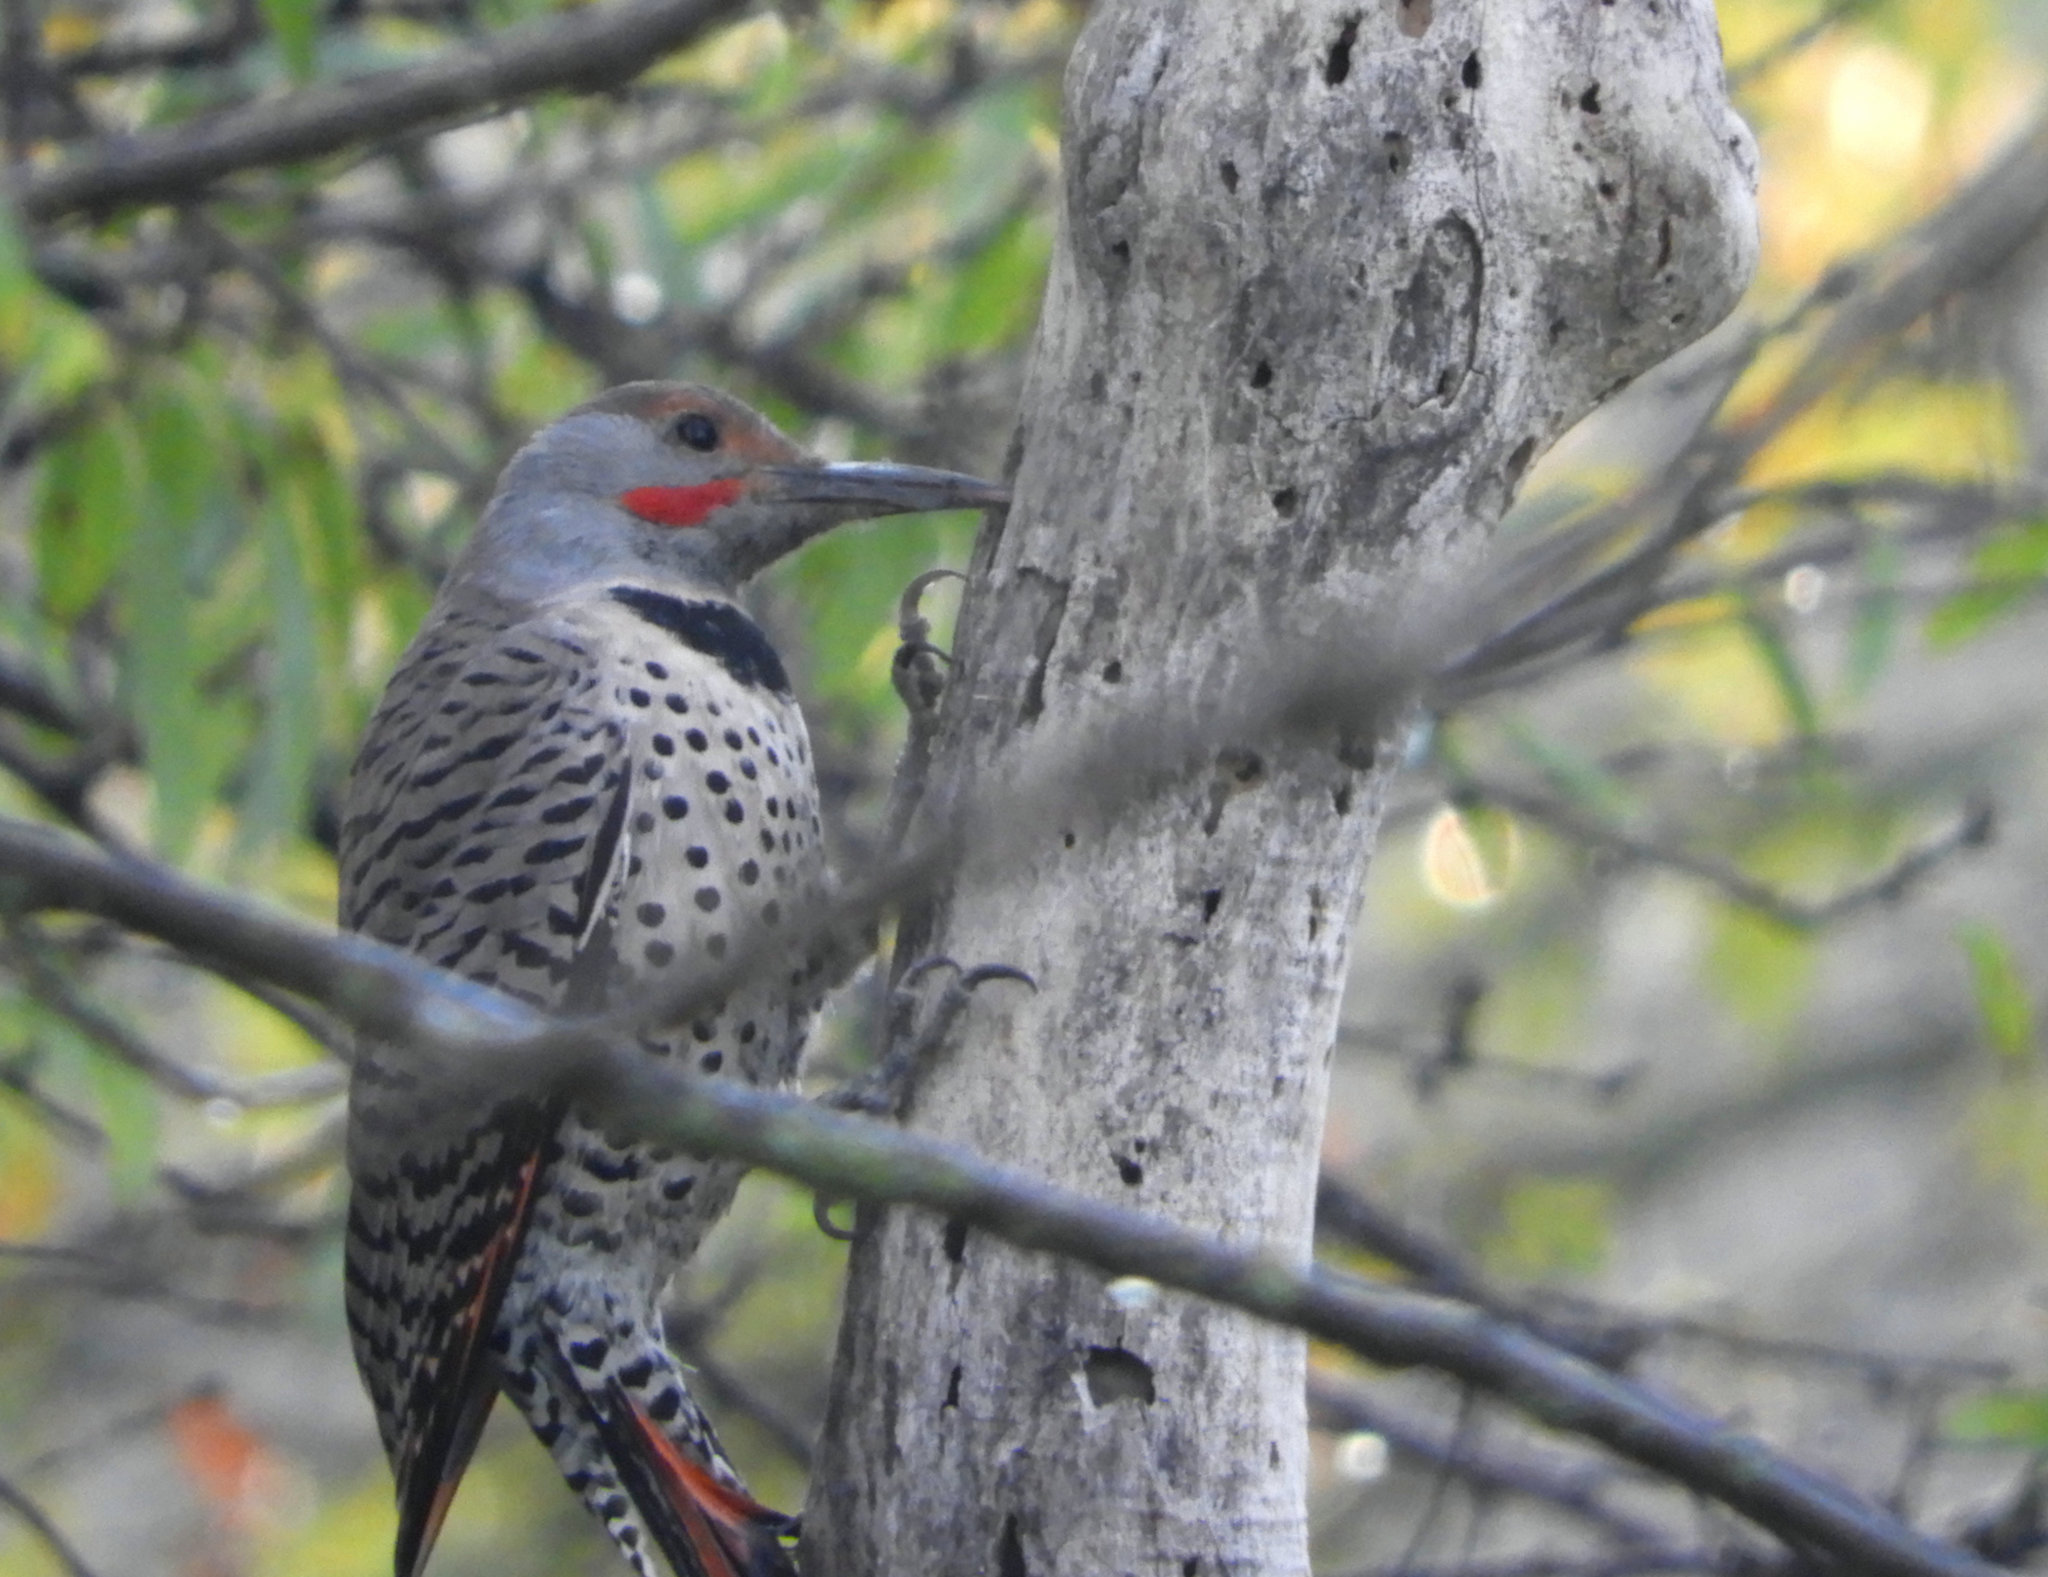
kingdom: Animalia
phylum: Chordata
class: Aves
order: Piciformes
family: Picidae
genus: Colaptes
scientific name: Colaptes auratus
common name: Northern flicker
